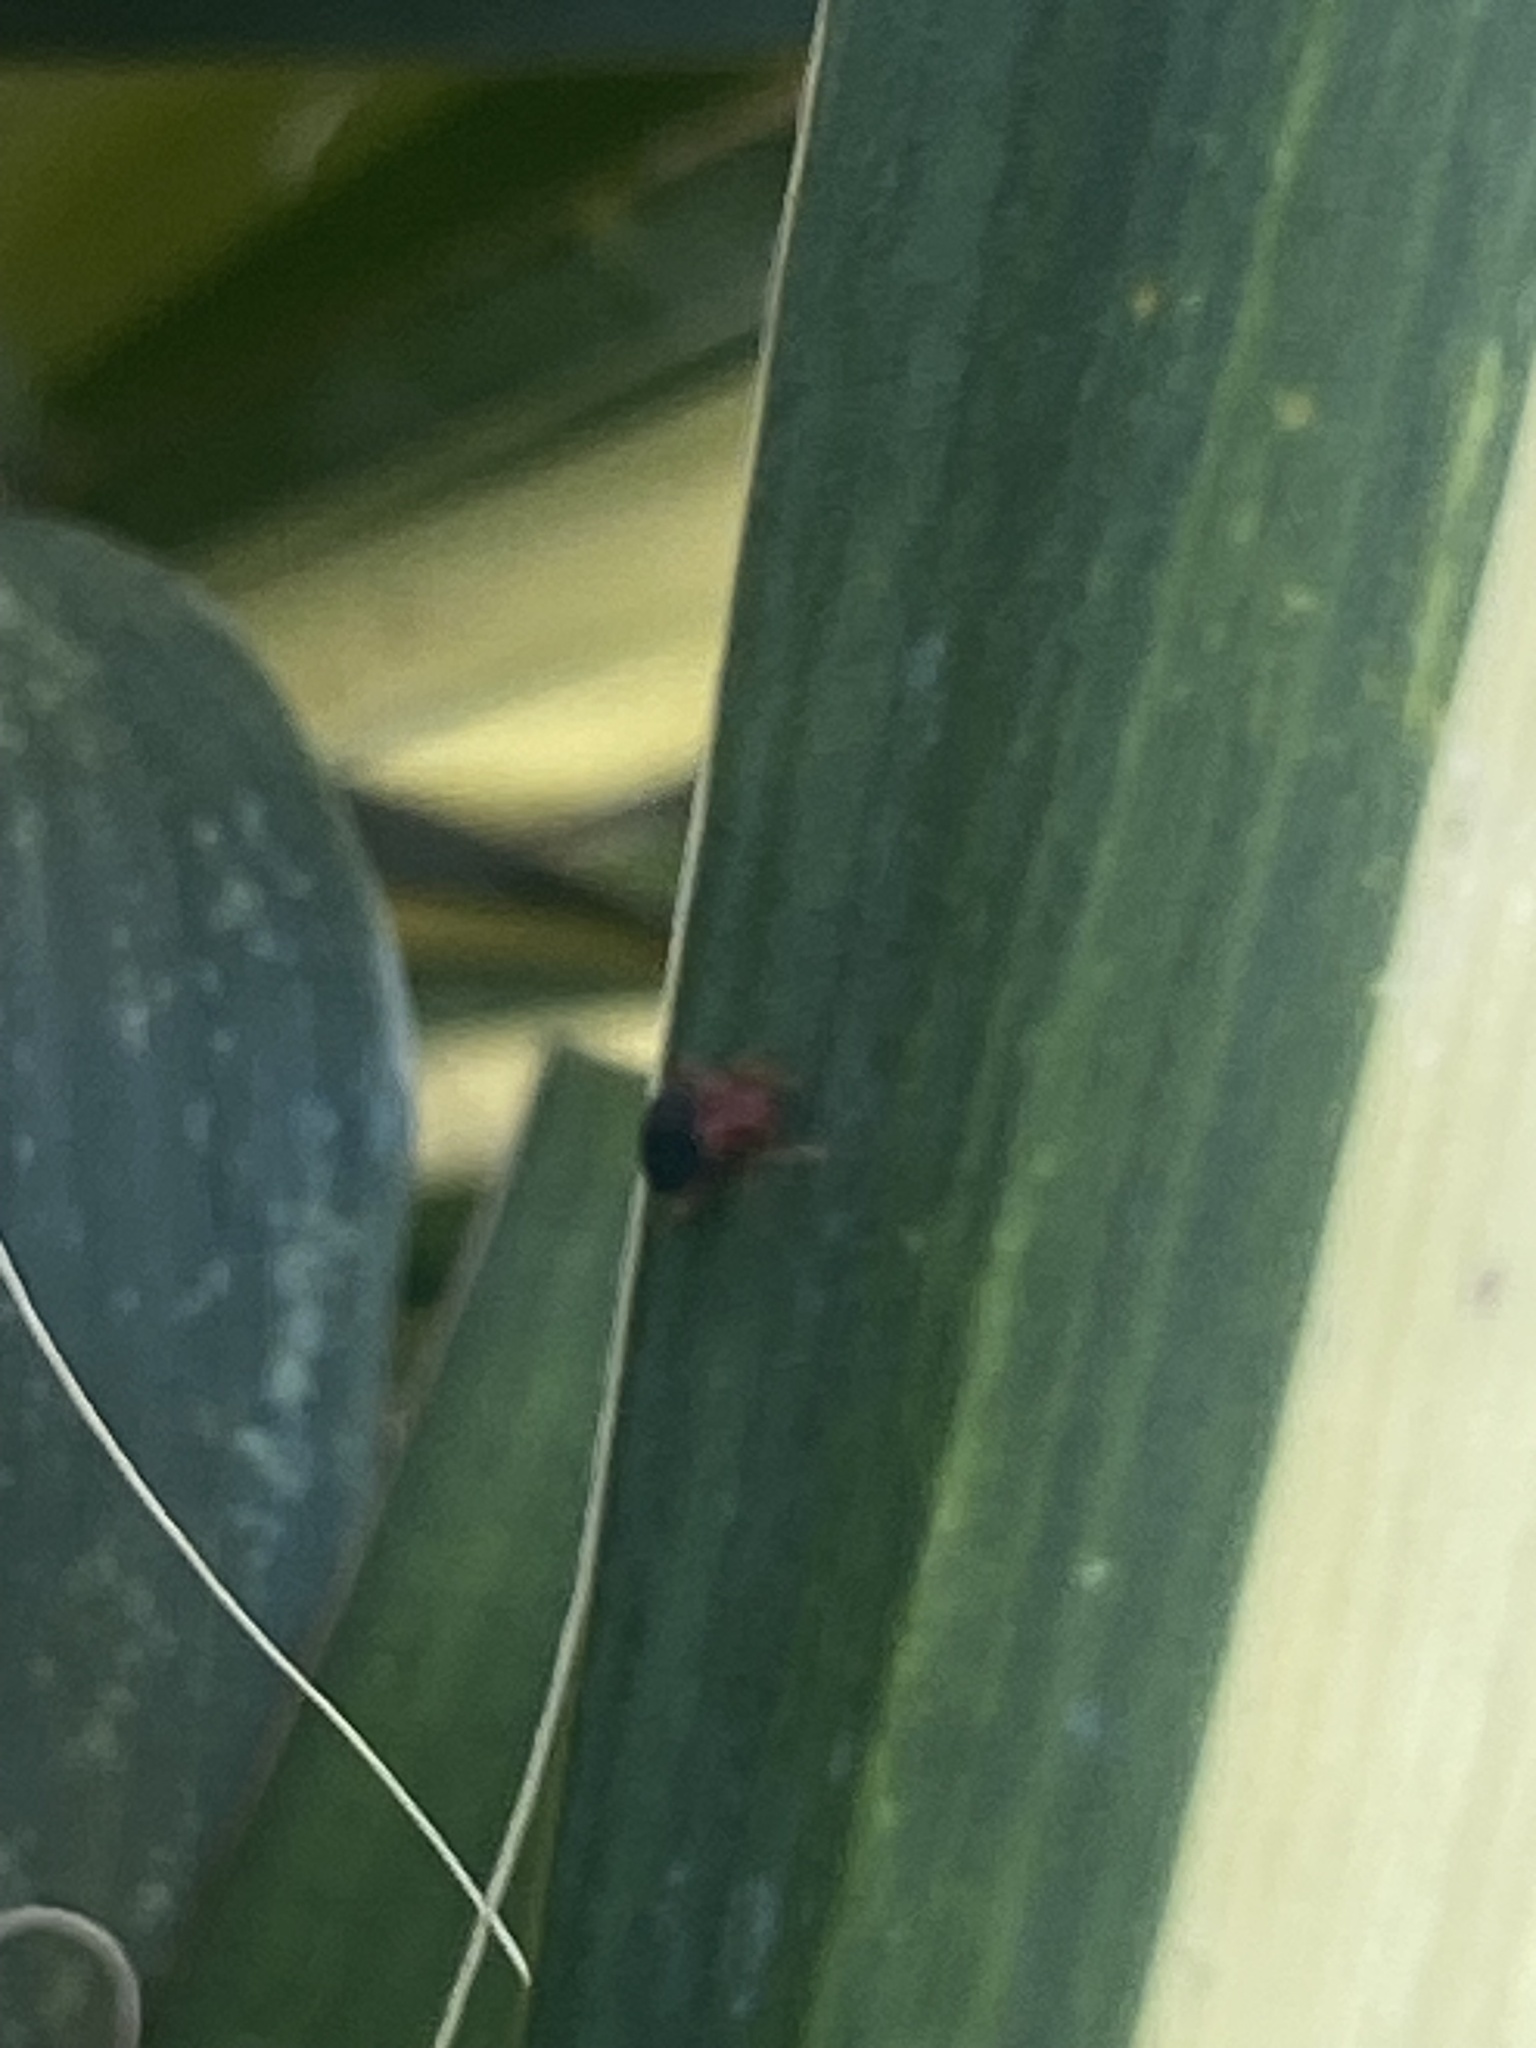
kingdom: Animalia
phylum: Arthropoda
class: Insecta
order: Hemiptera
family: Miridae
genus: Halticotoma
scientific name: Halticotoma valida
